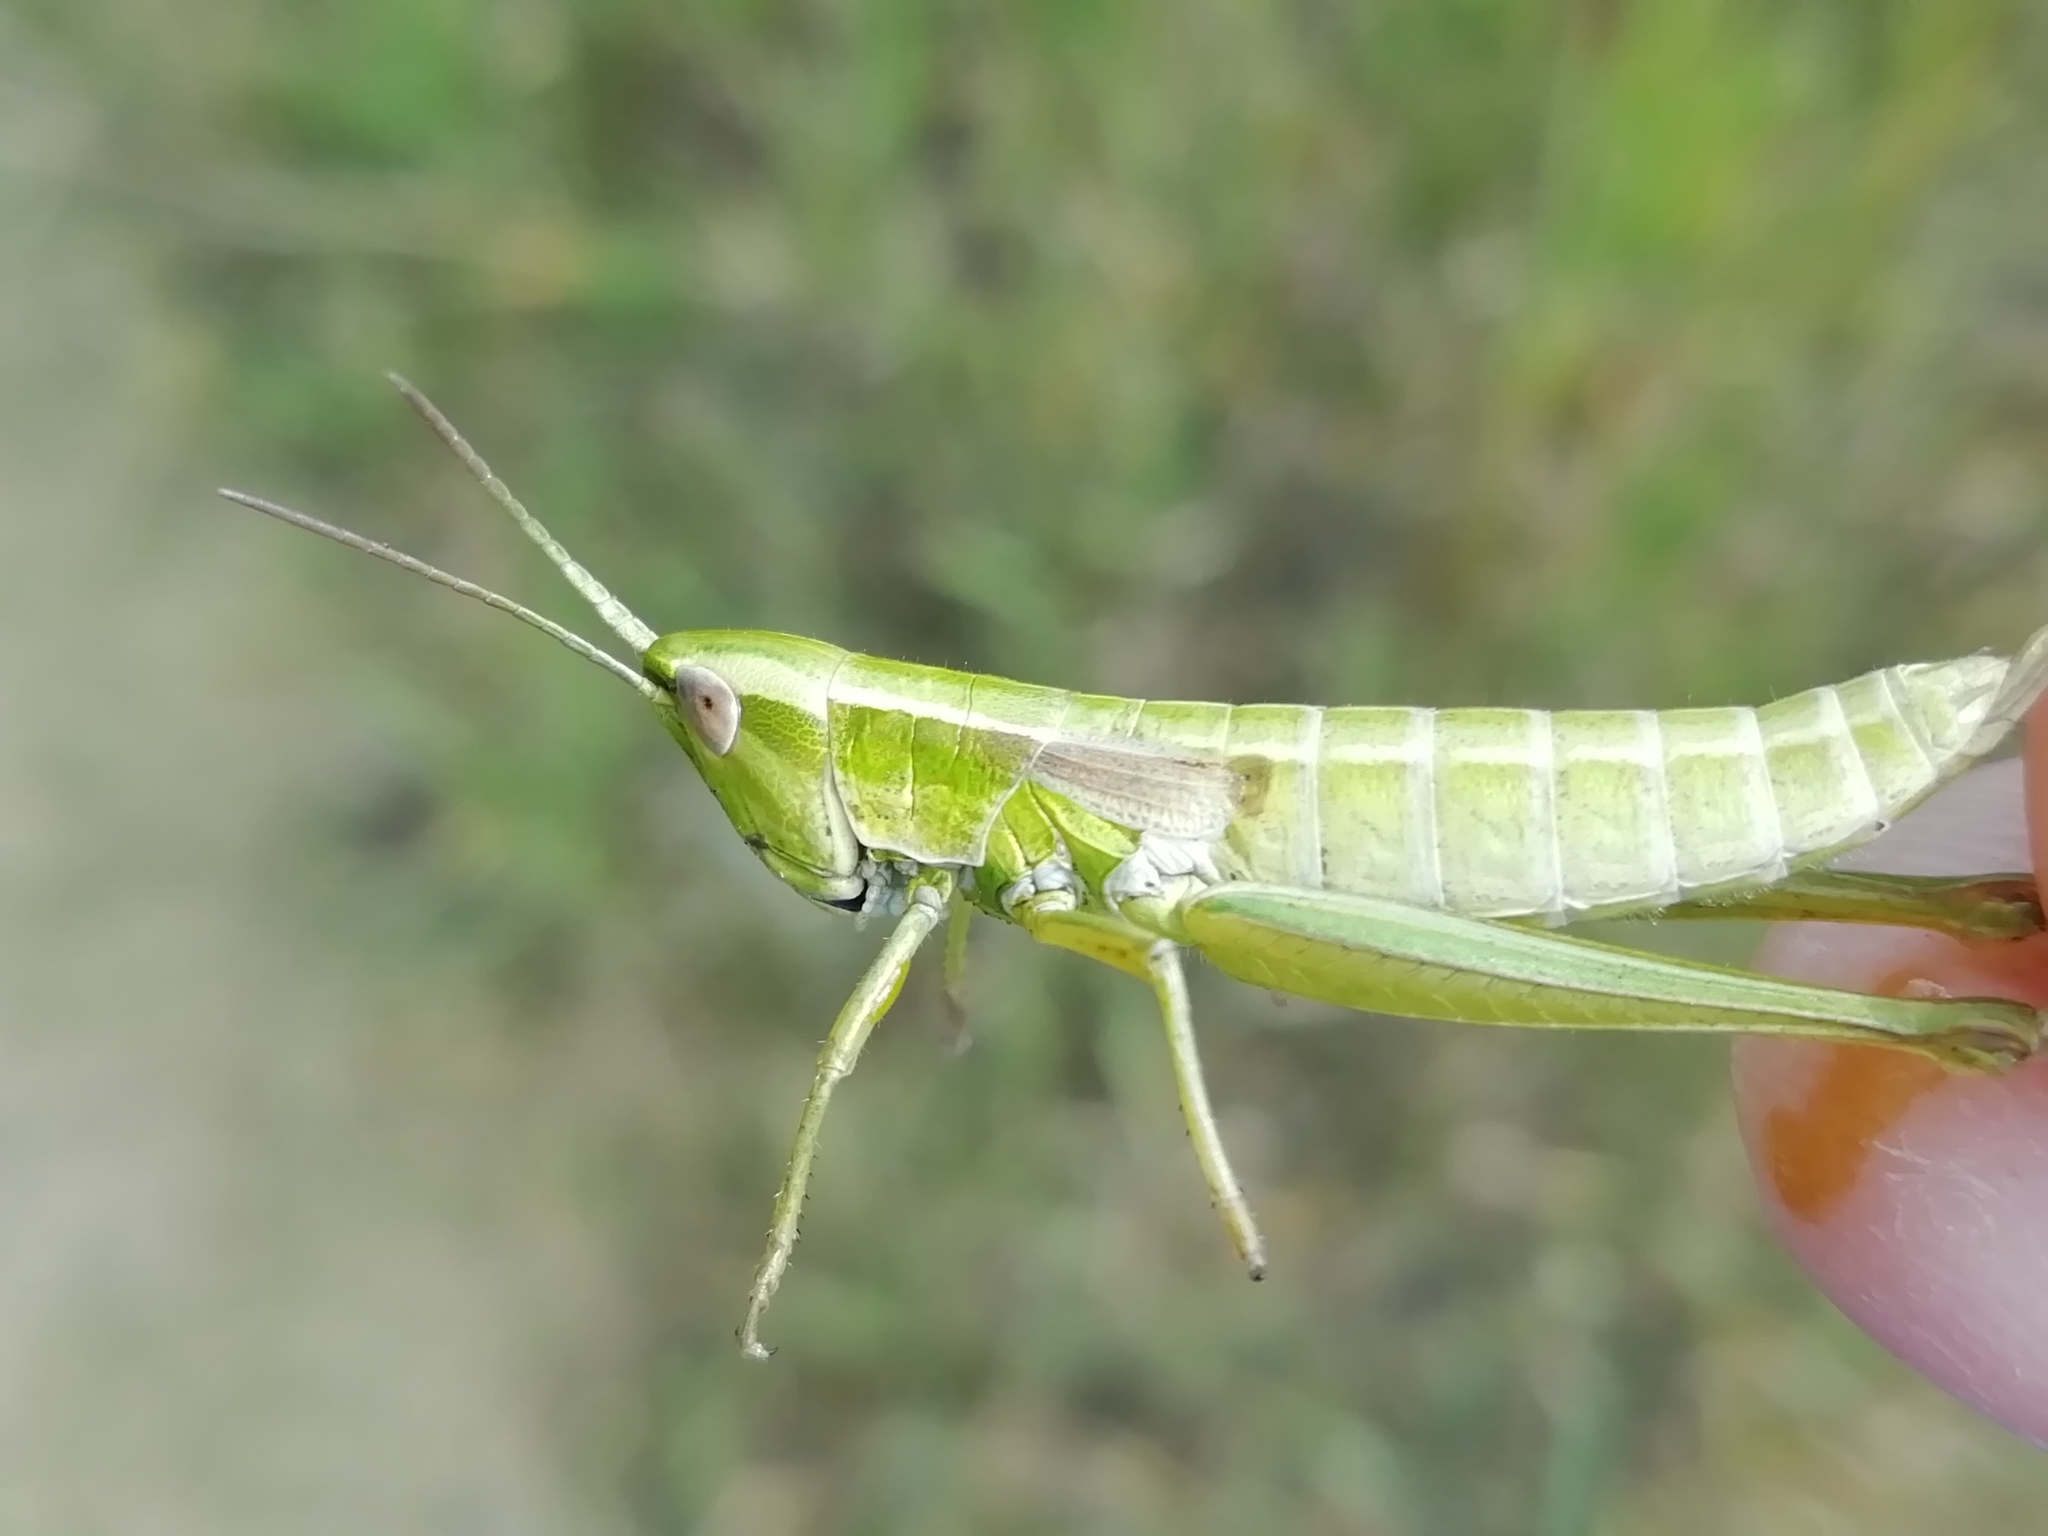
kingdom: Animalia
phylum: Arthropoda
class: Insecta
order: Orthoptera
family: Acrididae
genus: Euthystira
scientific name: Euthystira brachyptera
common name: Small gold grasshopper
